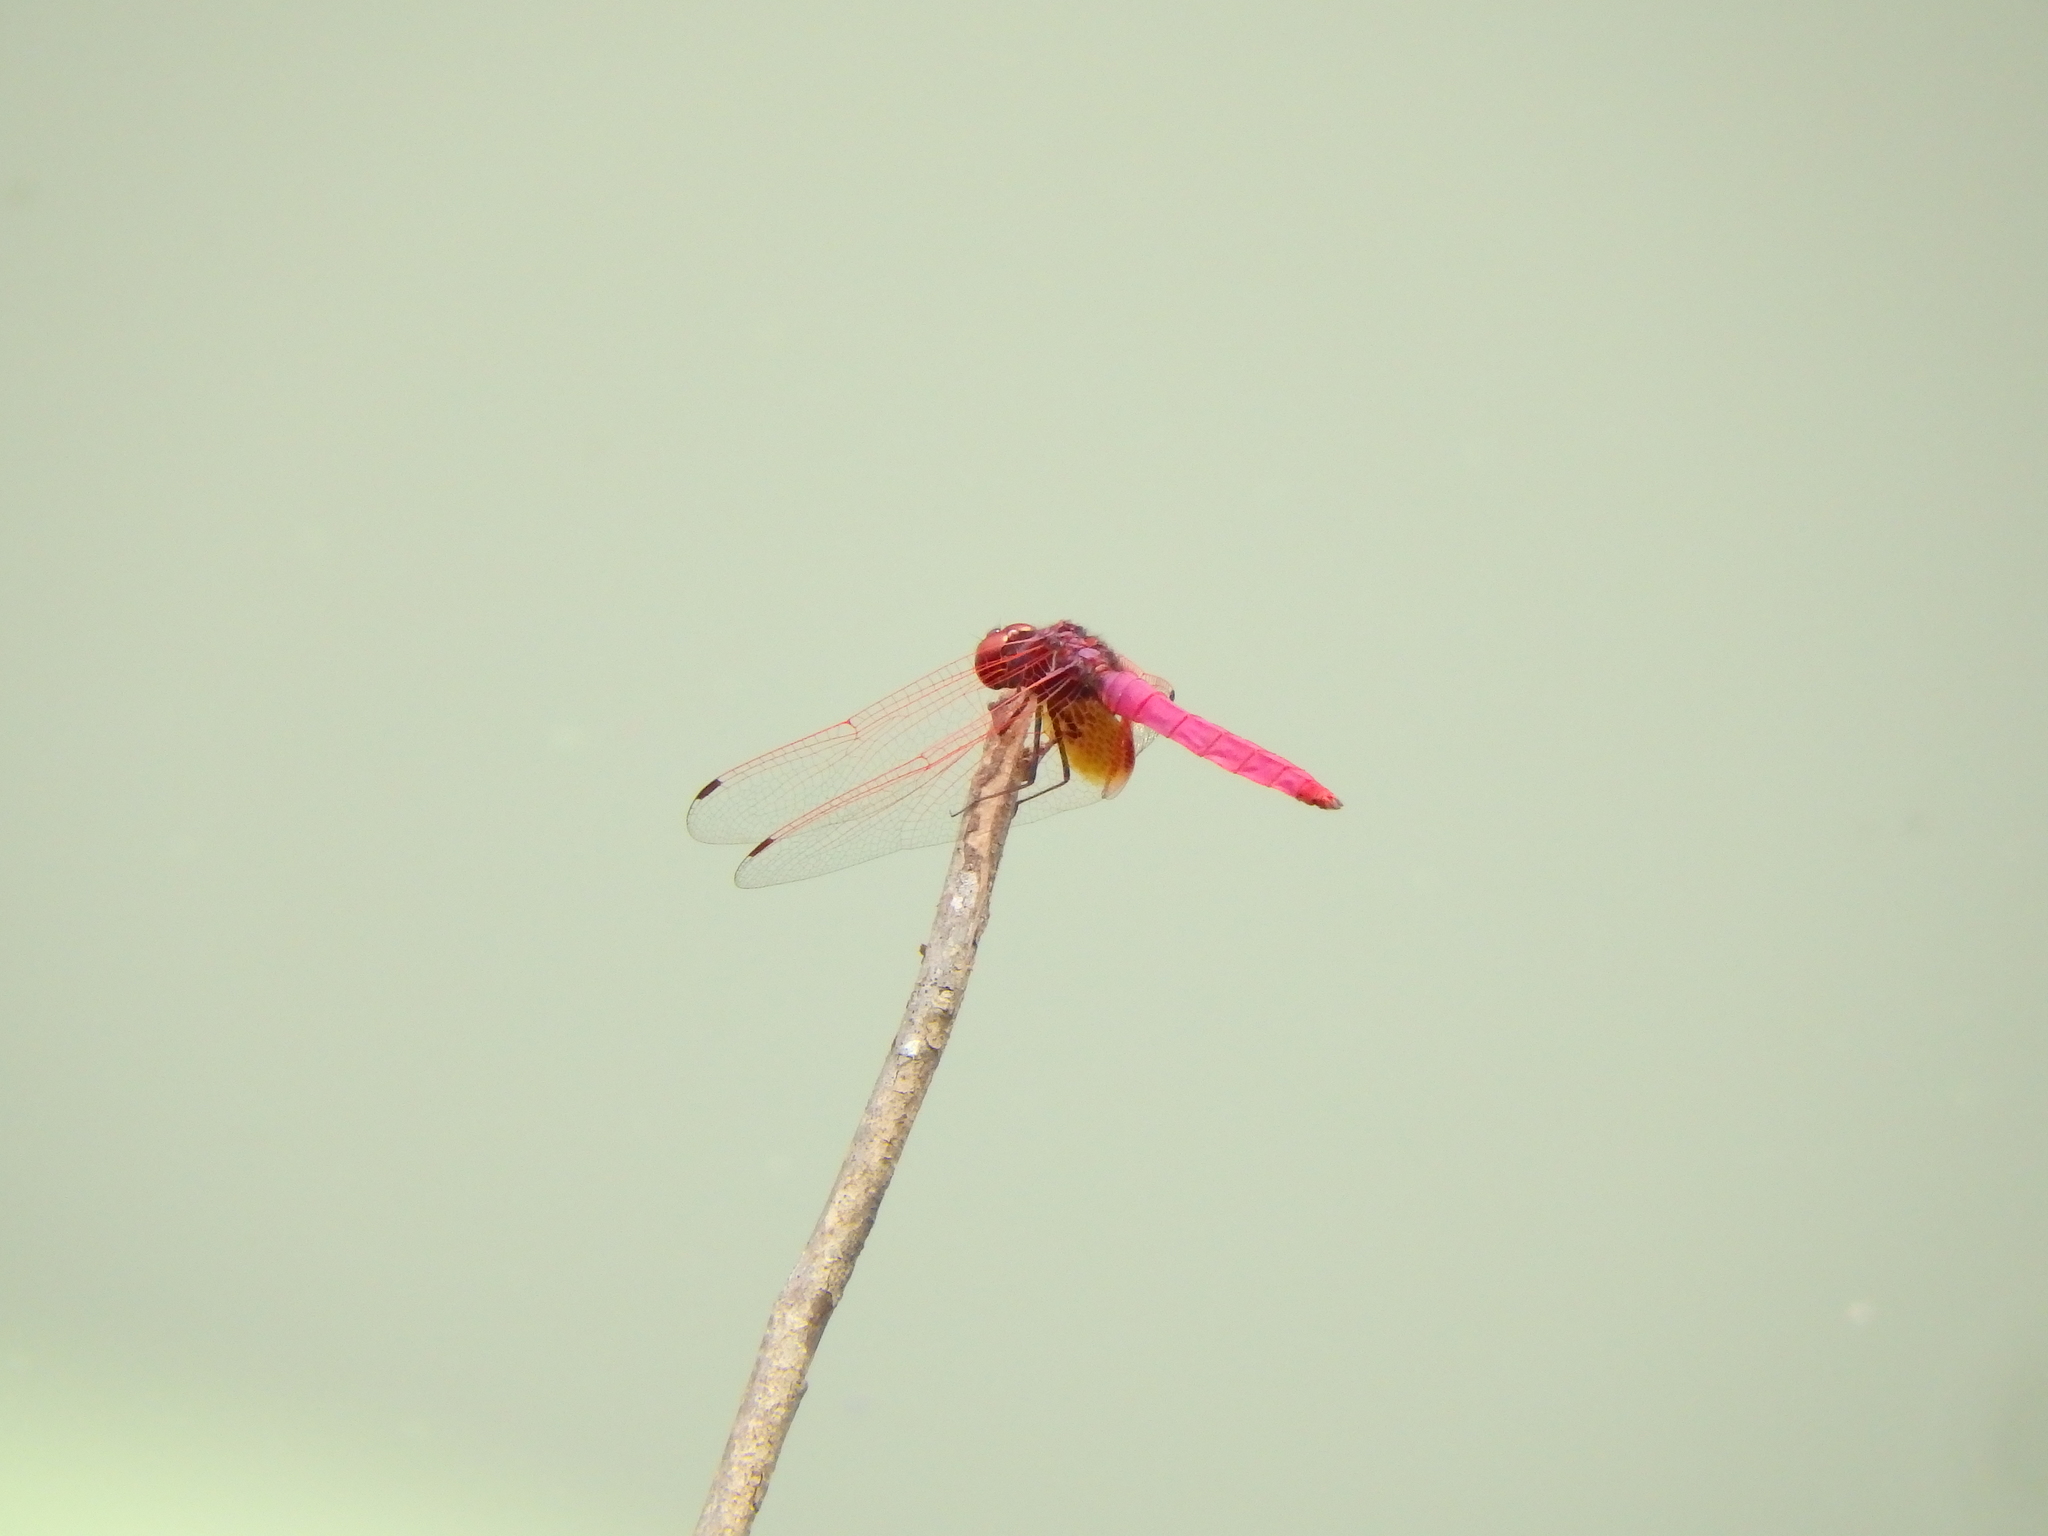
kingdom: Animalia
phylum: Arthropoda
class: Insecta
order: Odonata
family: Libellulidae
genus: Trithemis
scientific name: Trithemis aurora
